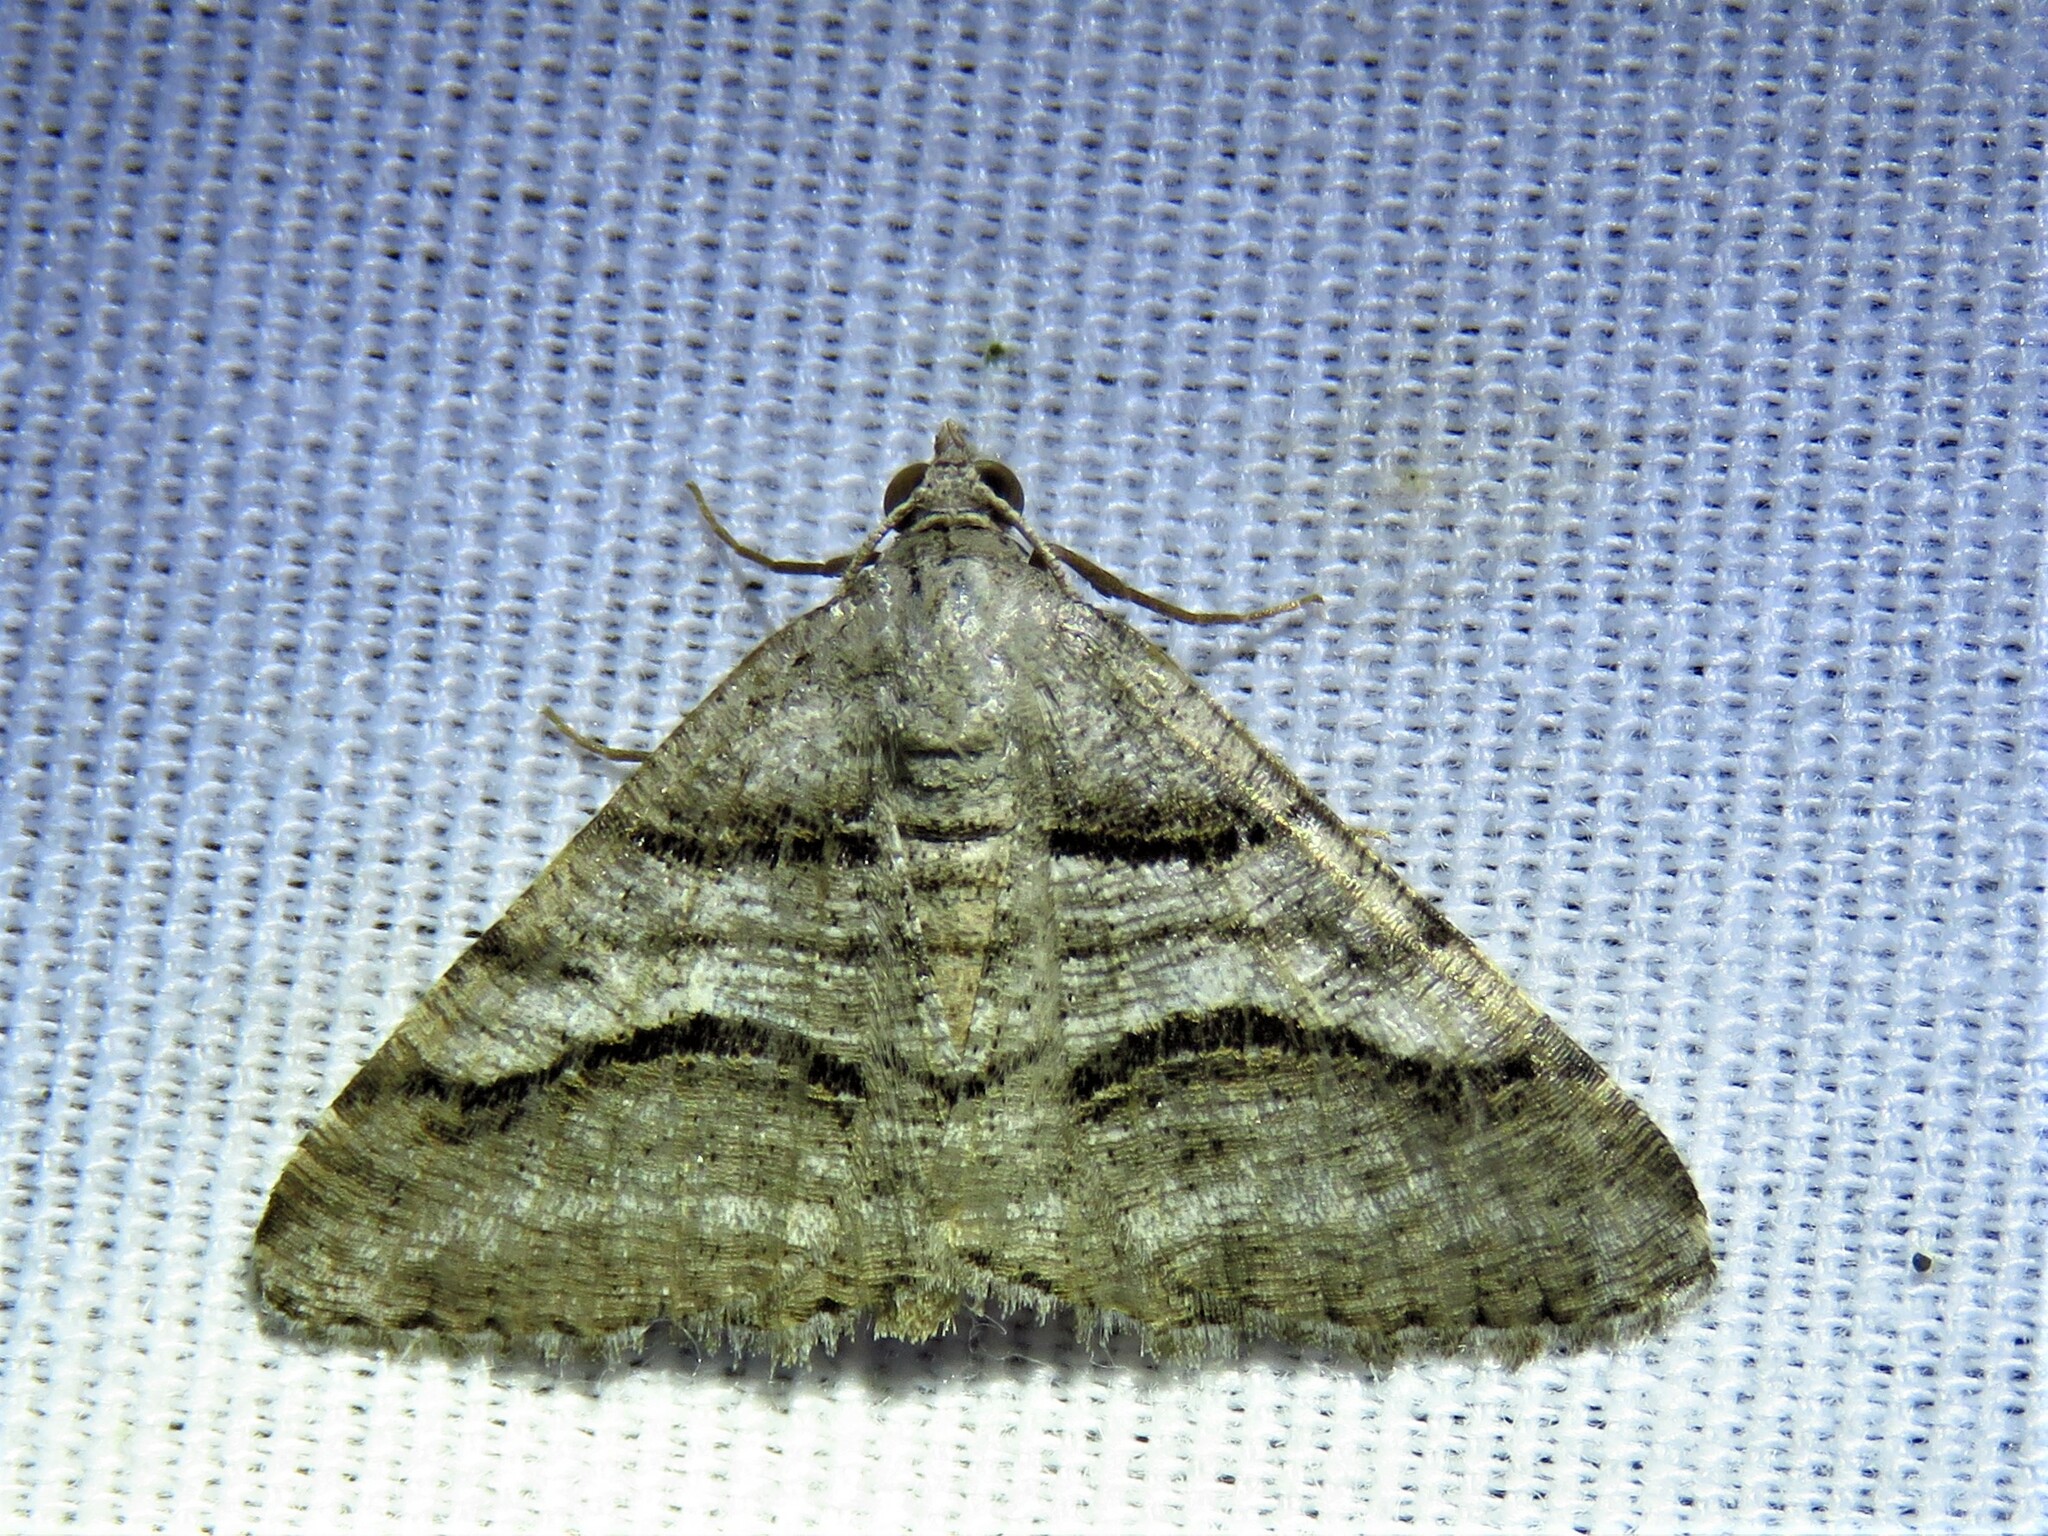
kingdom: Animalia
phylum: Arthropoda
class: Insecta
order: Lepidoptera
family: Geometridae
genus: Digrammia
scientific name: Digrammia continuata
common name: Curve-lined angle
